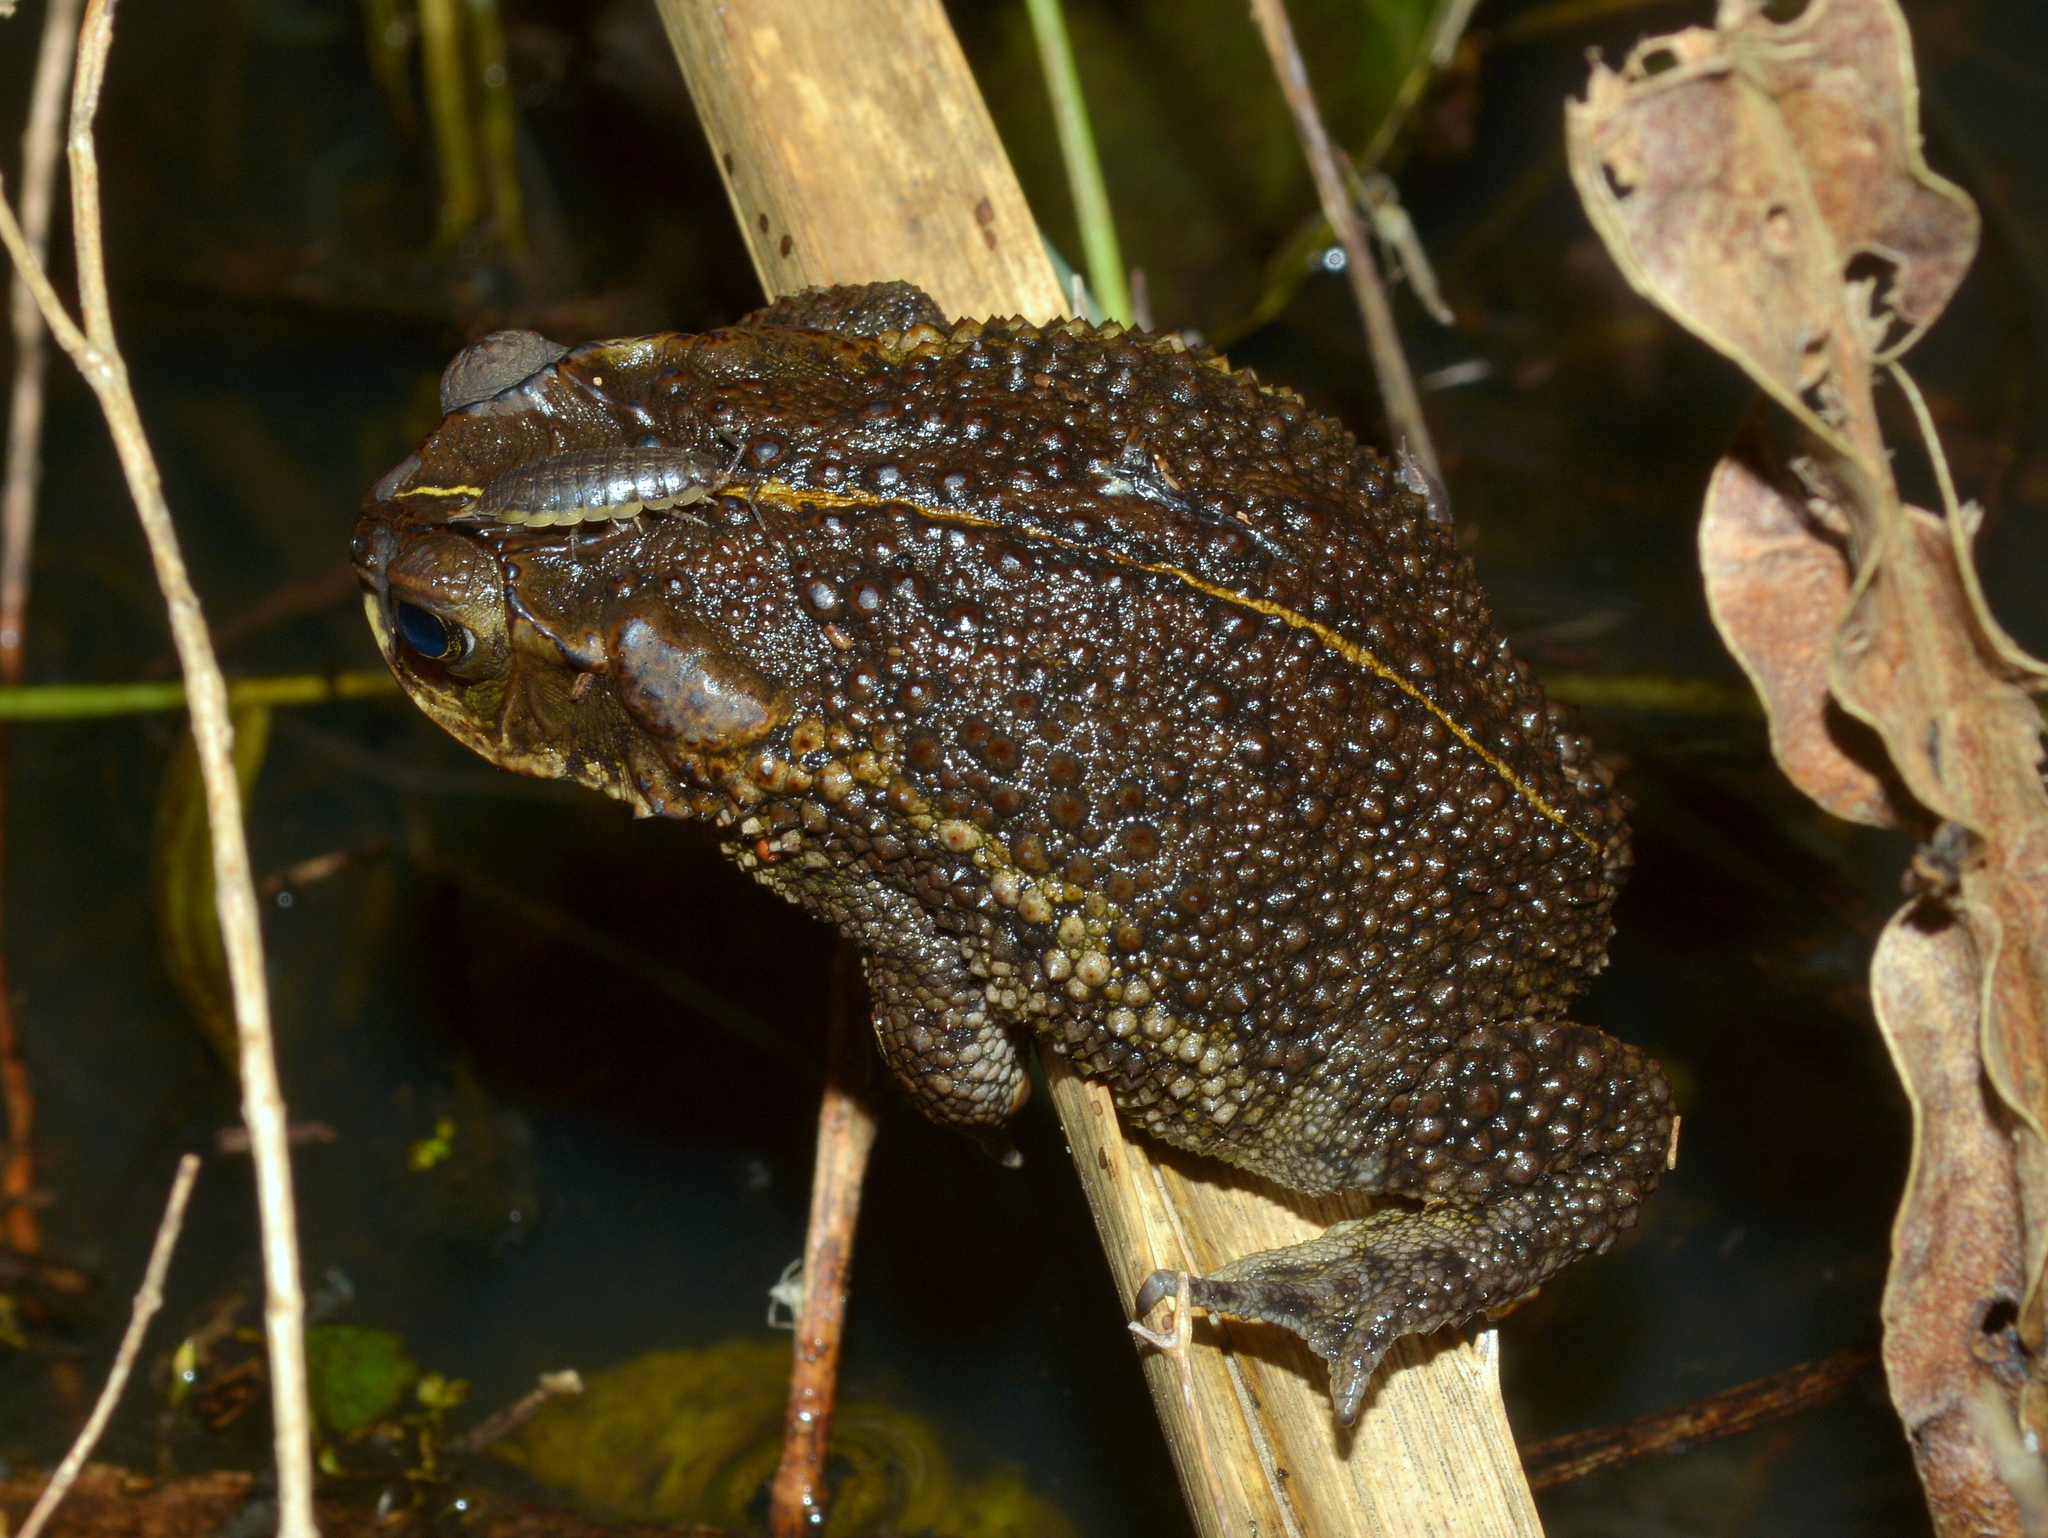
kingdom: Animalia
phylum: Chordata
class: Amphibia
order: Anura
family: Bufonidae
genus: Rhinella
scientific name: Rhinella dorbignyi
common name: D´orbigny’s toad
